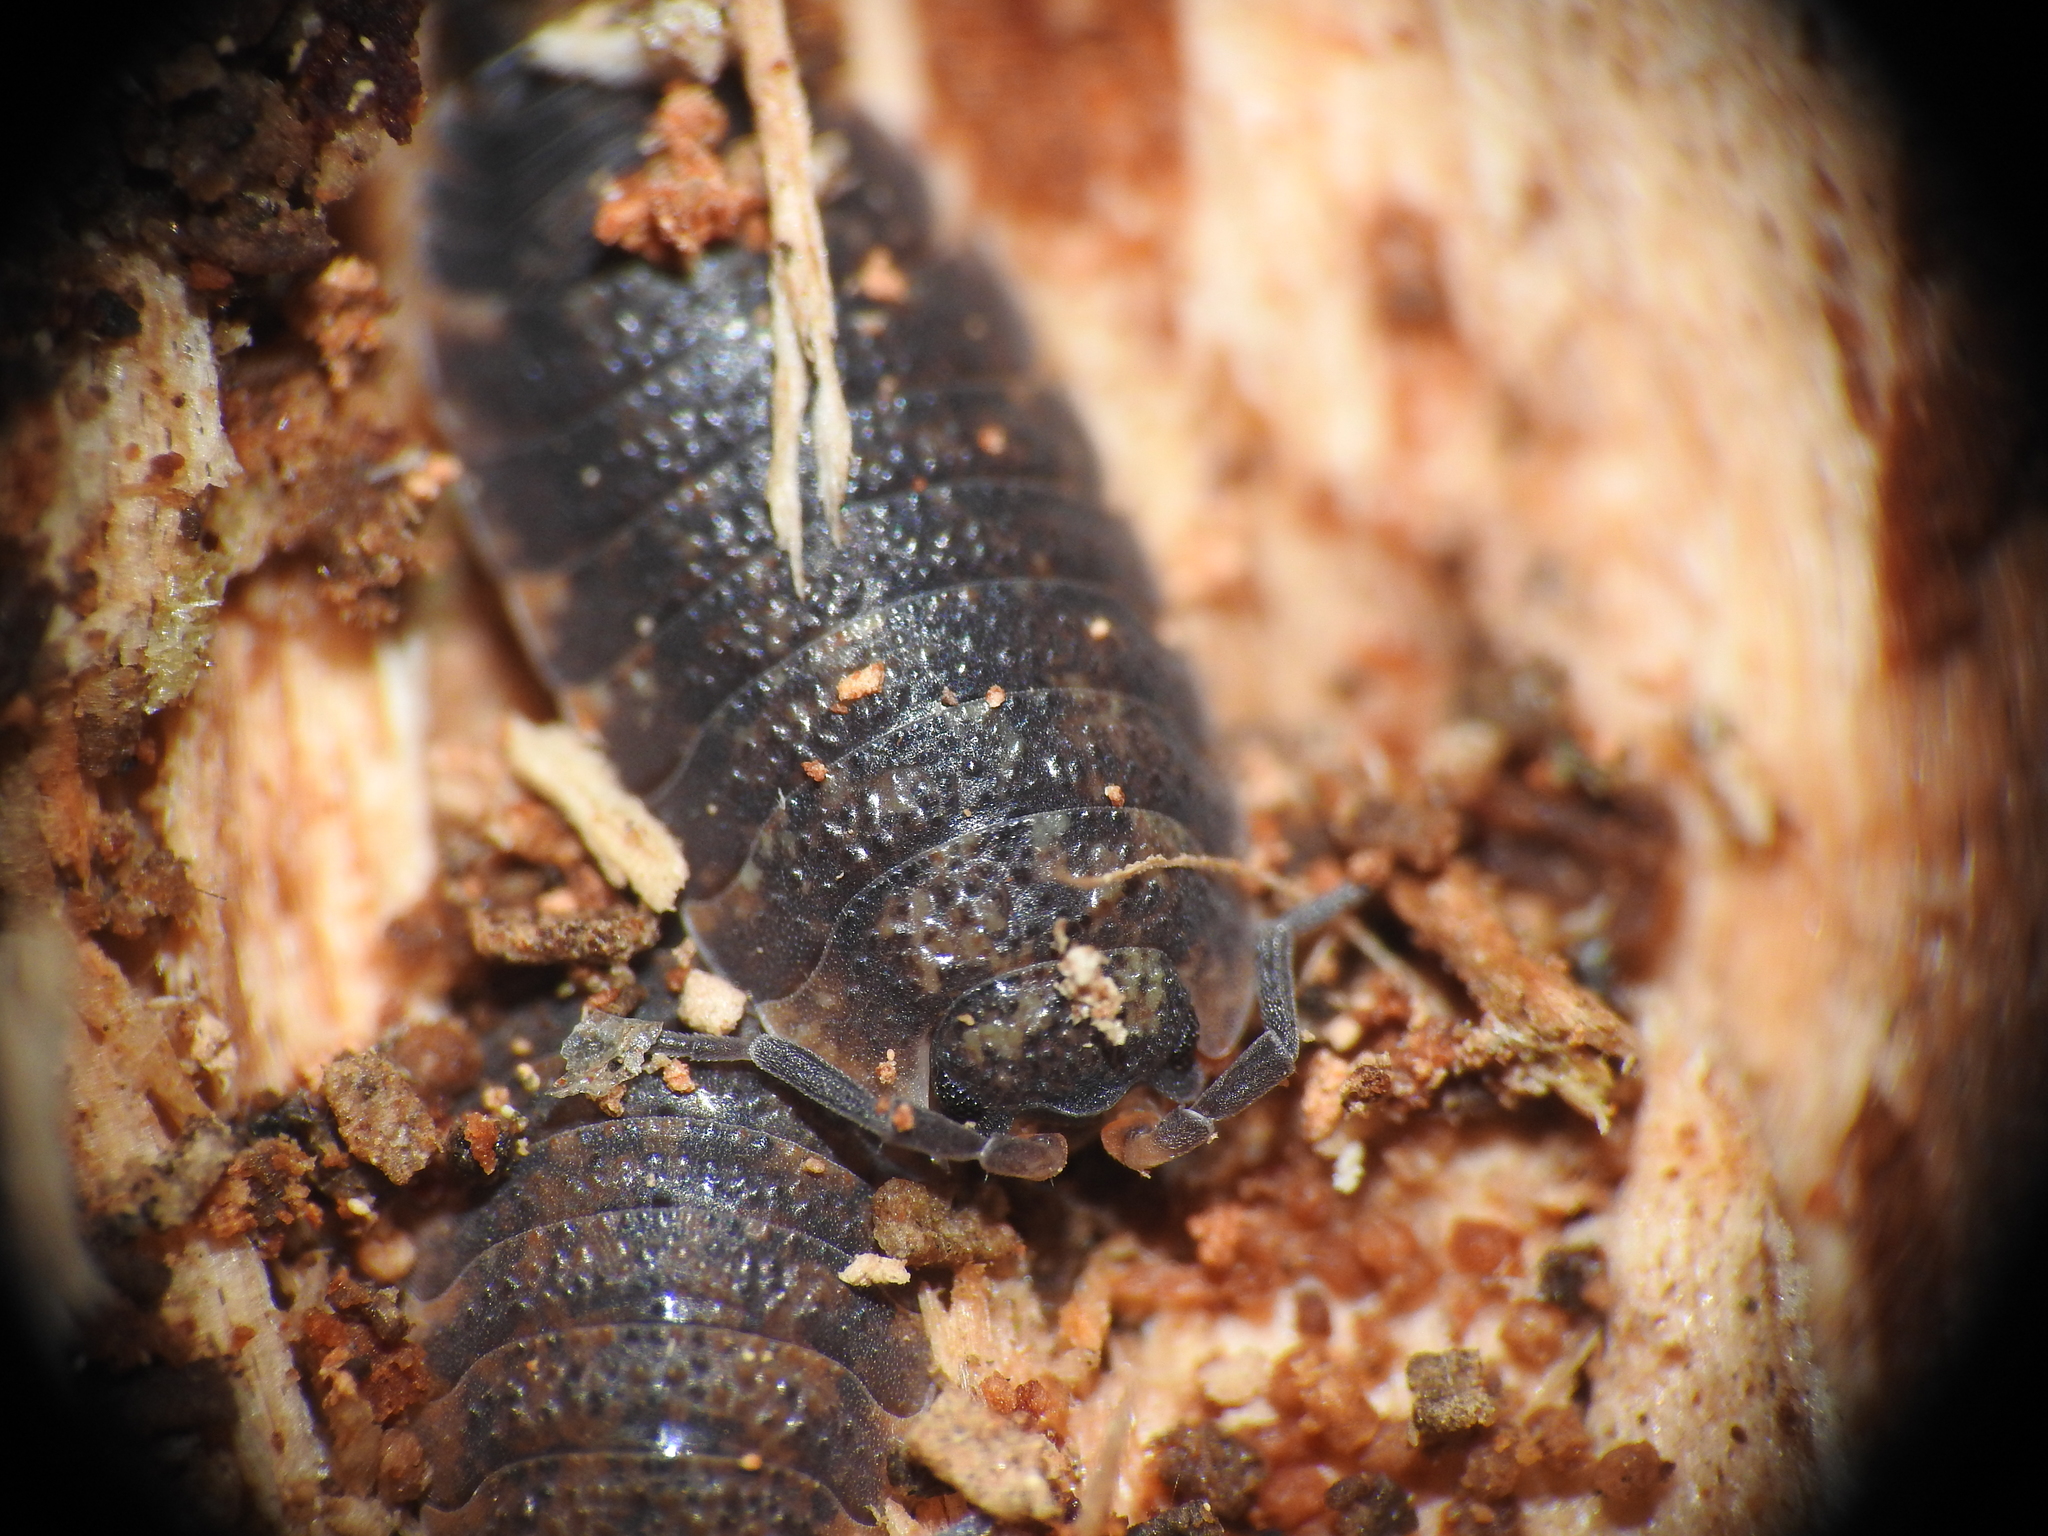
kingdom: Animalia
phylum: Arthropoda
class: Malacostraca
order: Isopoda
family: Porcellionidae
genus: Porcellio
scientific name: Porcellio scaber
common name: Common rough woodlouse
